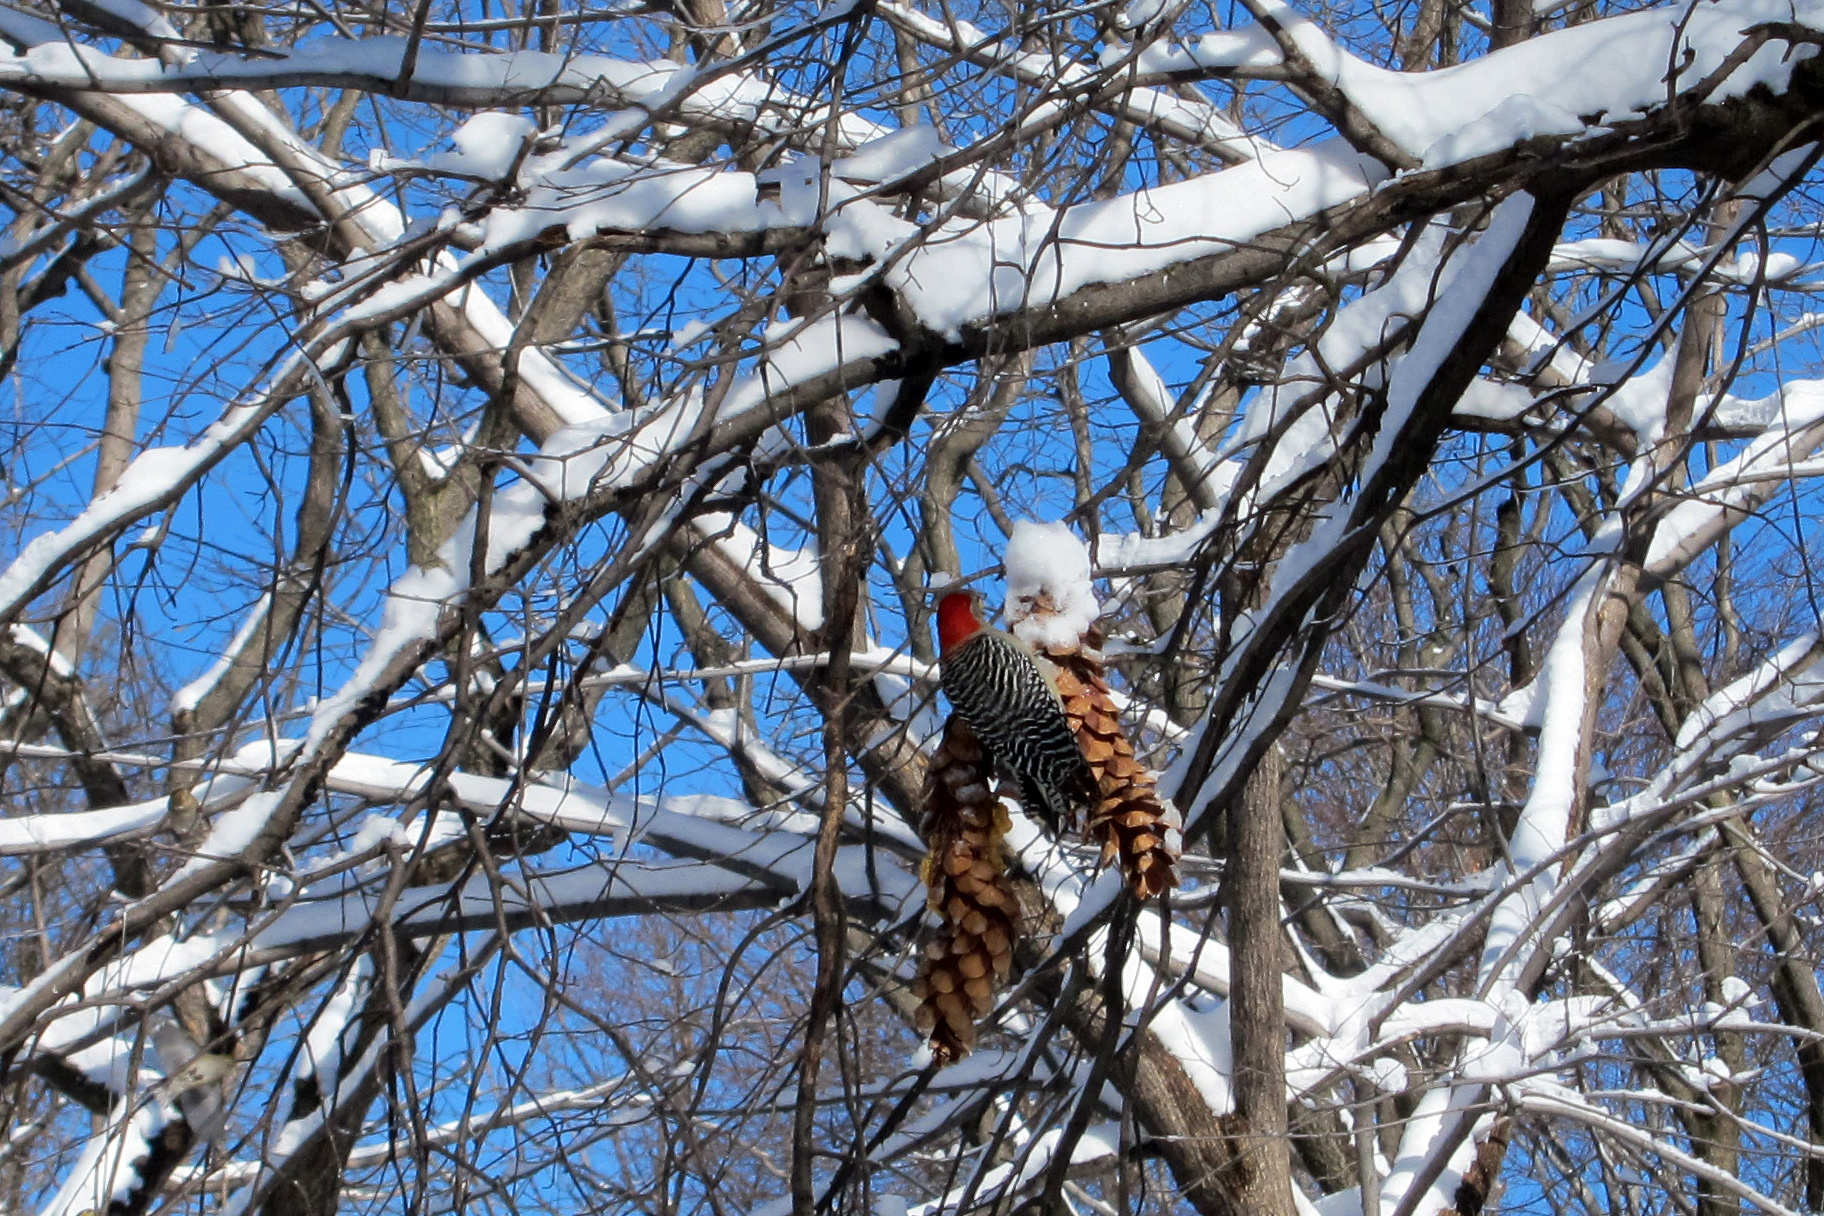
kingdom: Animalia
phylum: Chordata
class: Aves
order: Piciformes
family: Picidae
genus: Melanerpes
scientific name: Melanerpes carolinus
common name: Red-bellied woodpecker
